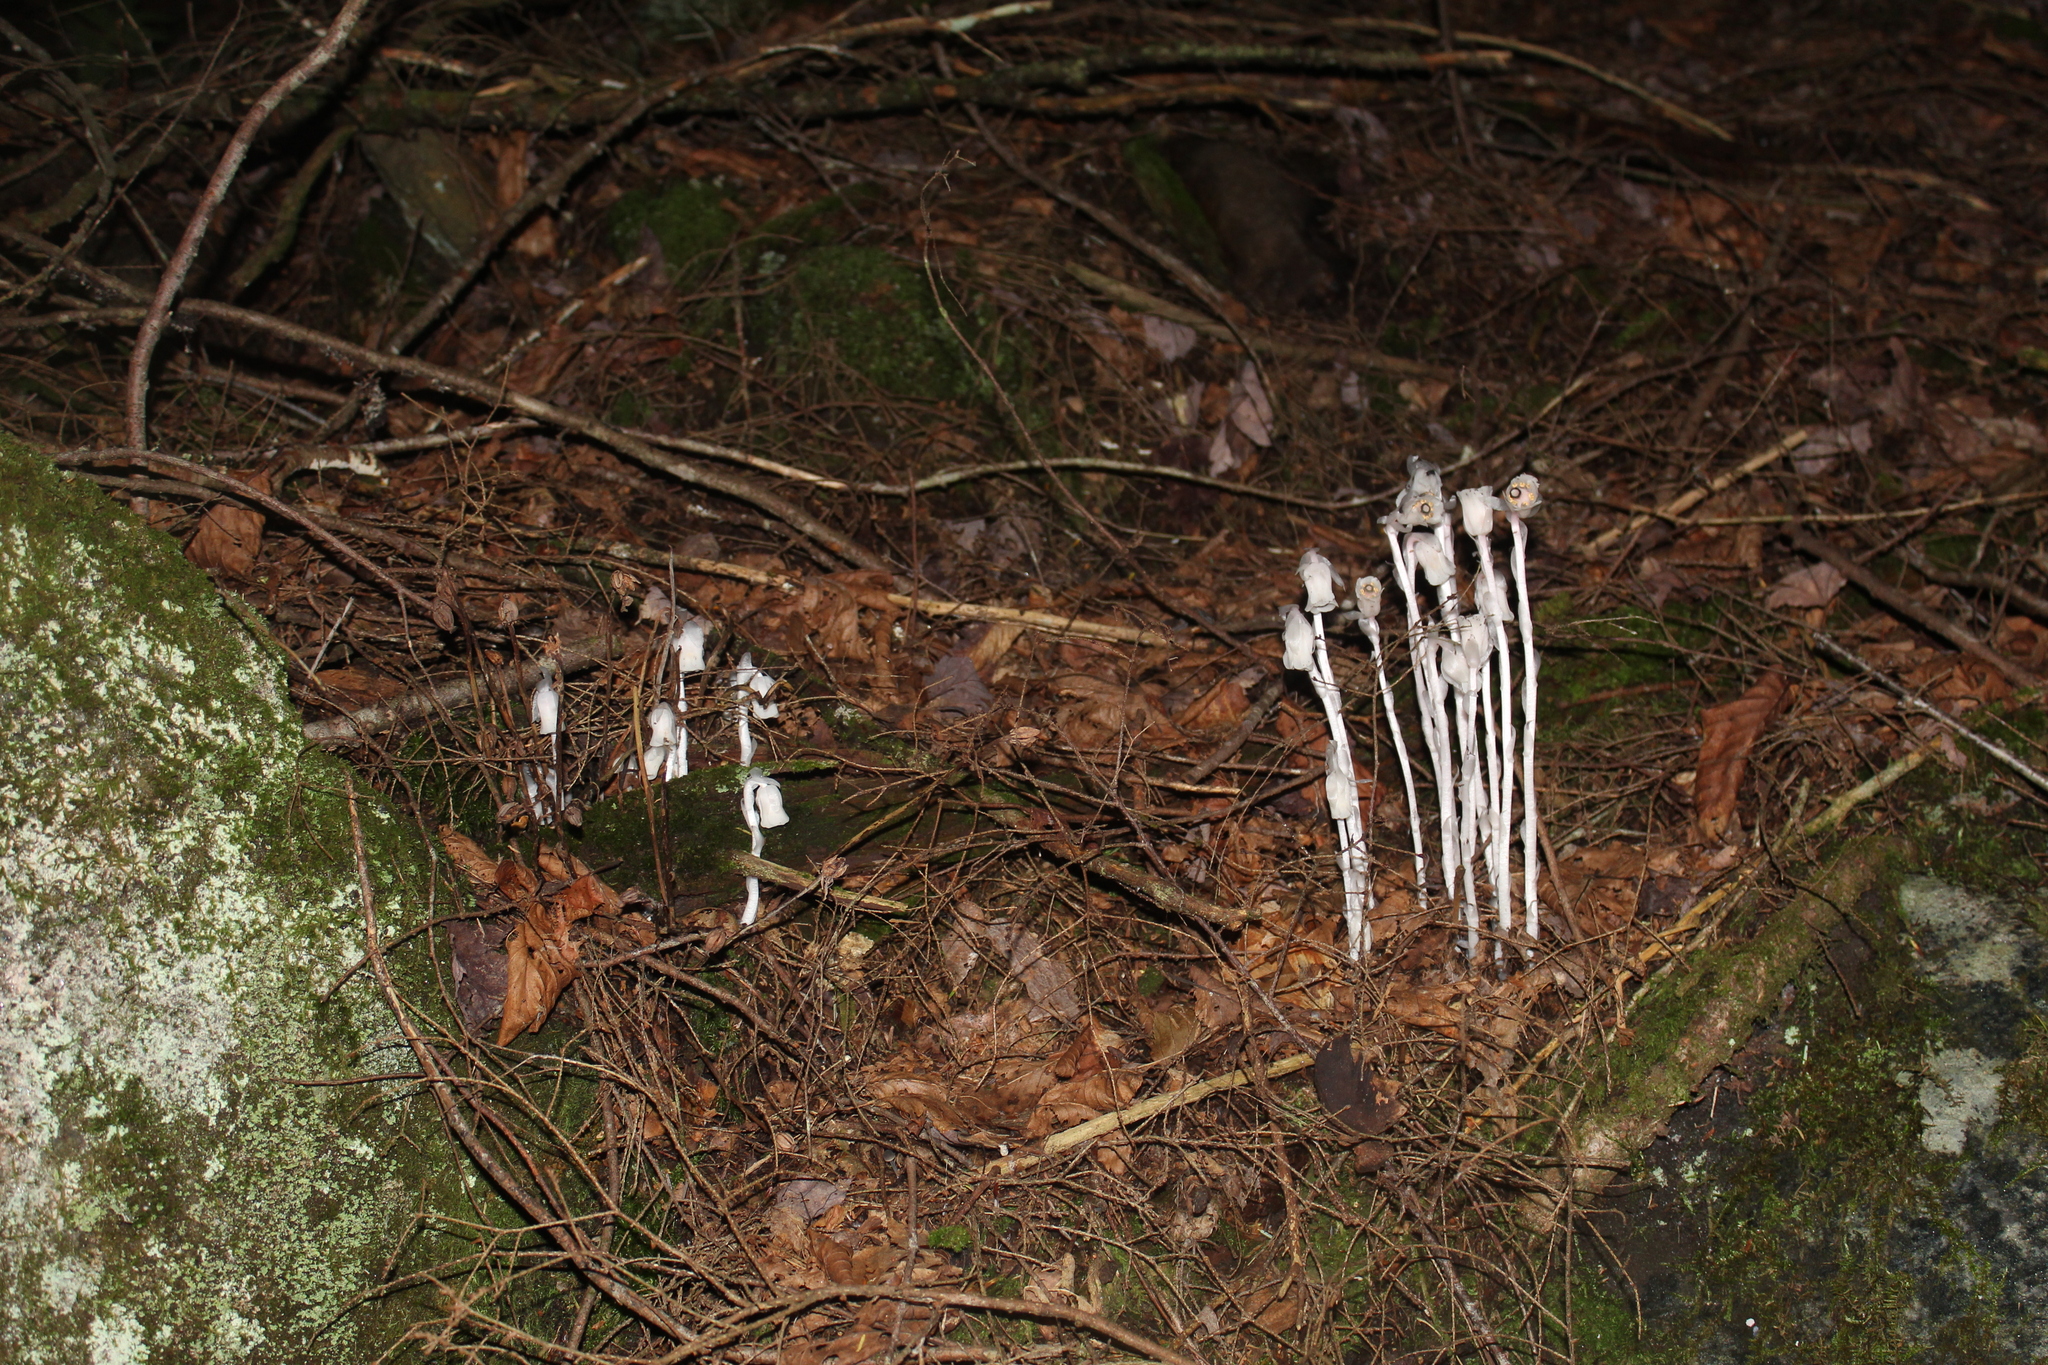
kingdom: Plantae
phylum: Tracheophyta
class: Magnoliopsida
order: Ericales
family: Ericaceae
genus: Monotropa
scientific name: Monotropa uniflora
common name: Convulsion root
